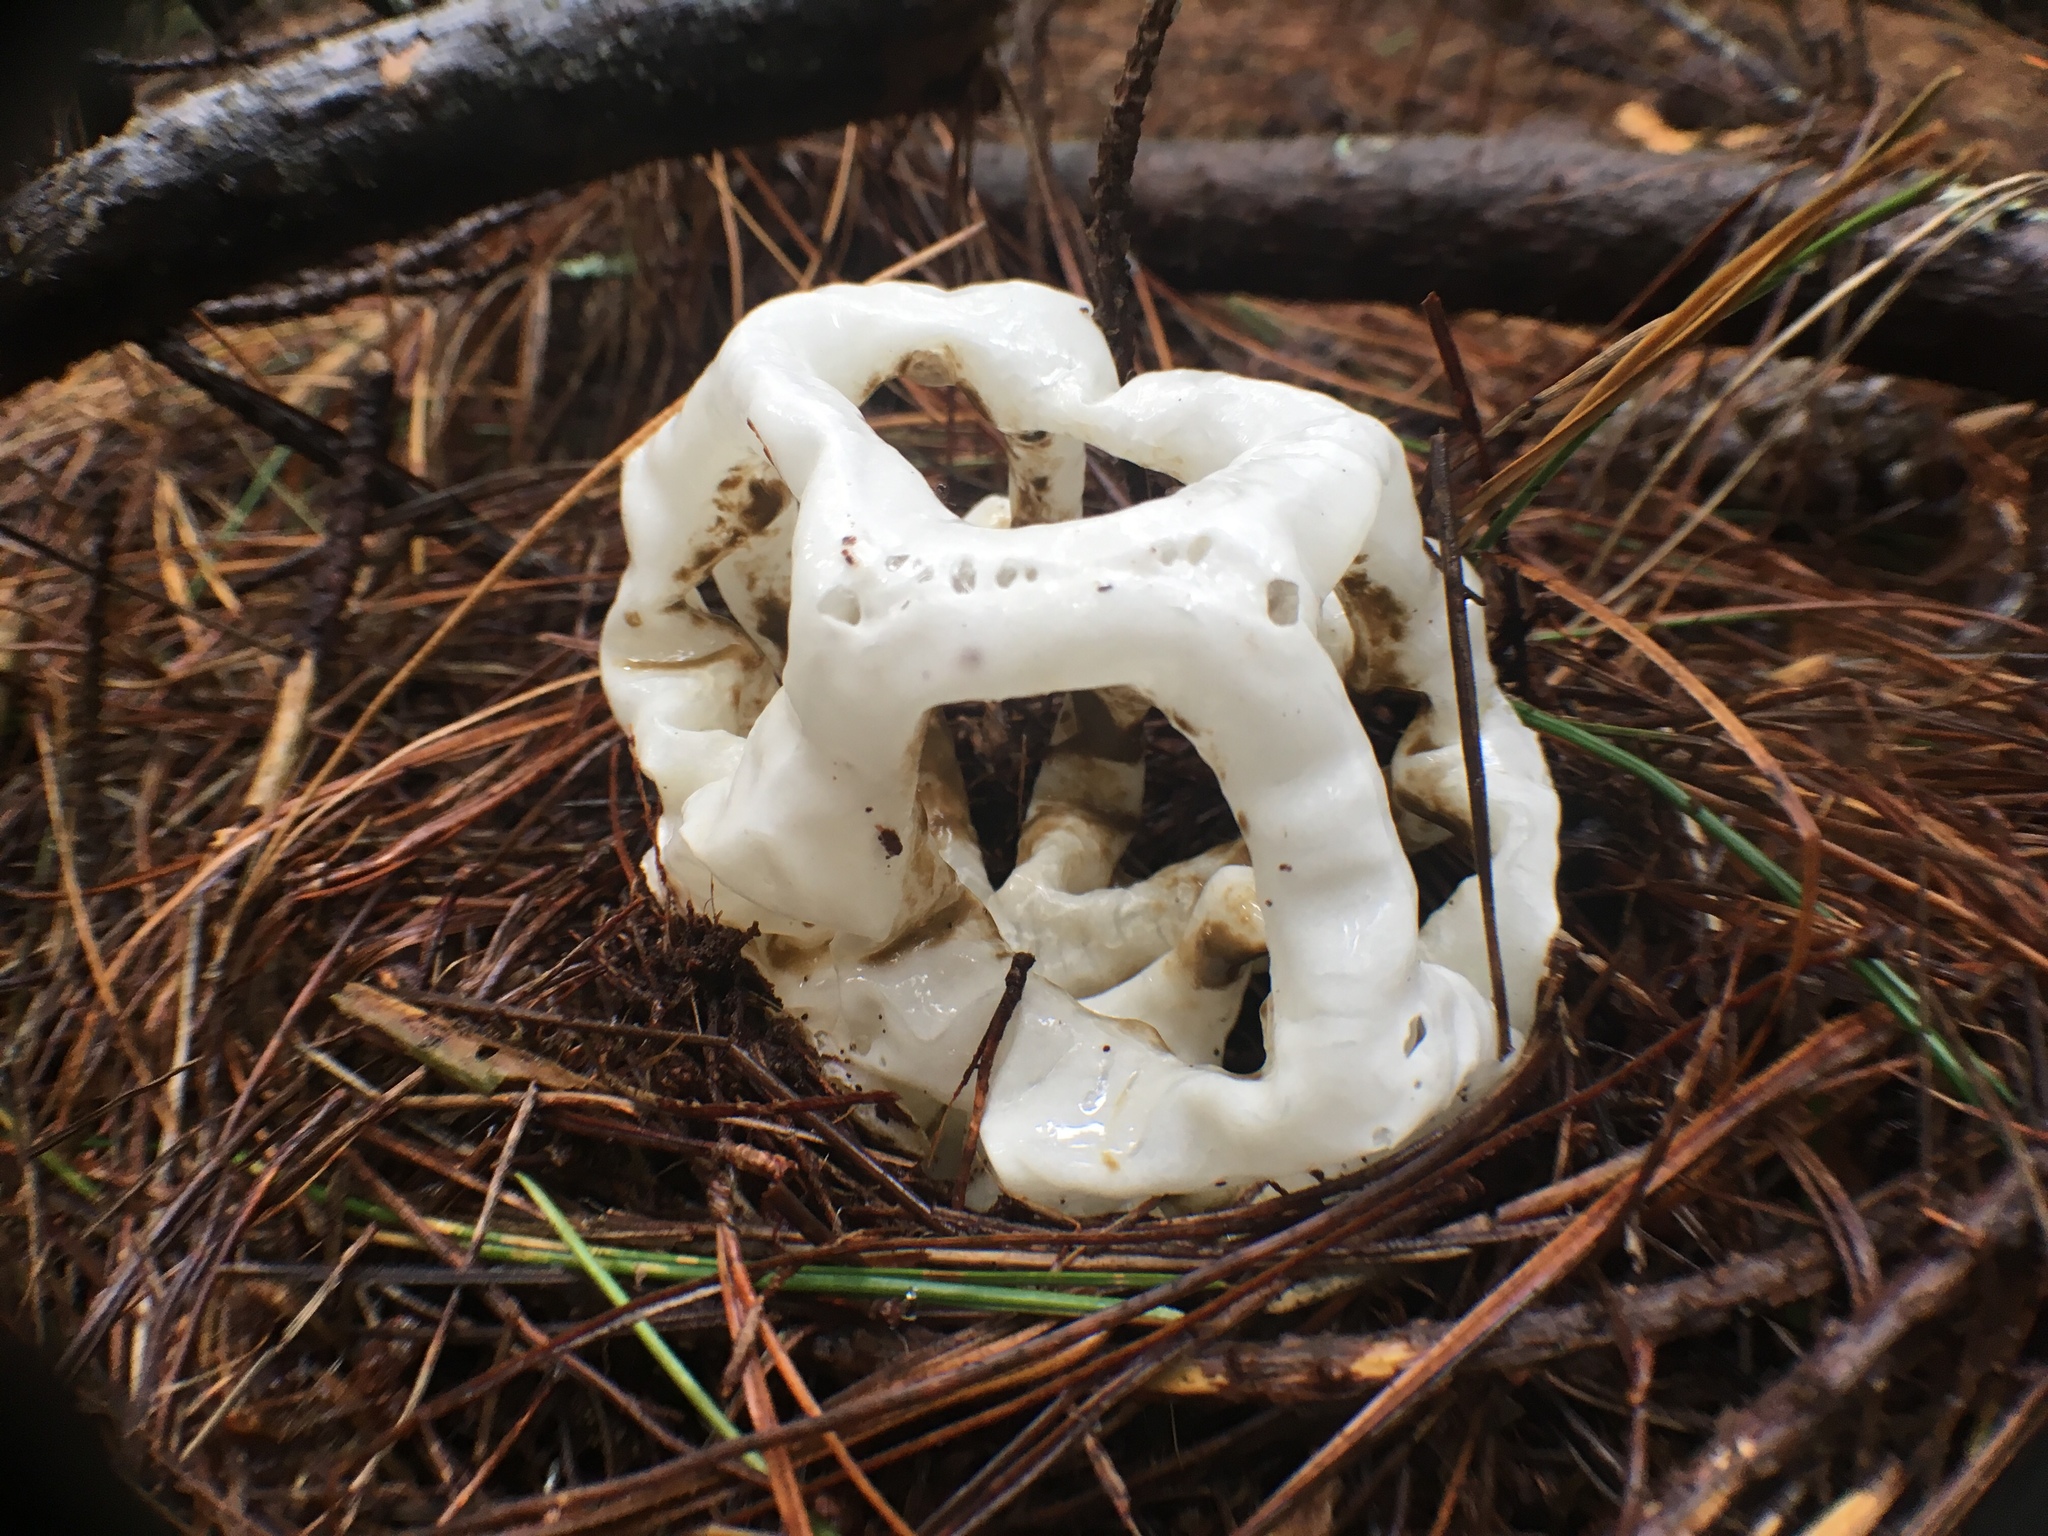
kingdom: Fungi
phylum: Basidiomycota
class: Agaricomycetes
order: Phallales
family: Phallaceae
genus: Ileodictyon
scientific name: Ileodictyon cibarium
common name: Basket fungus
